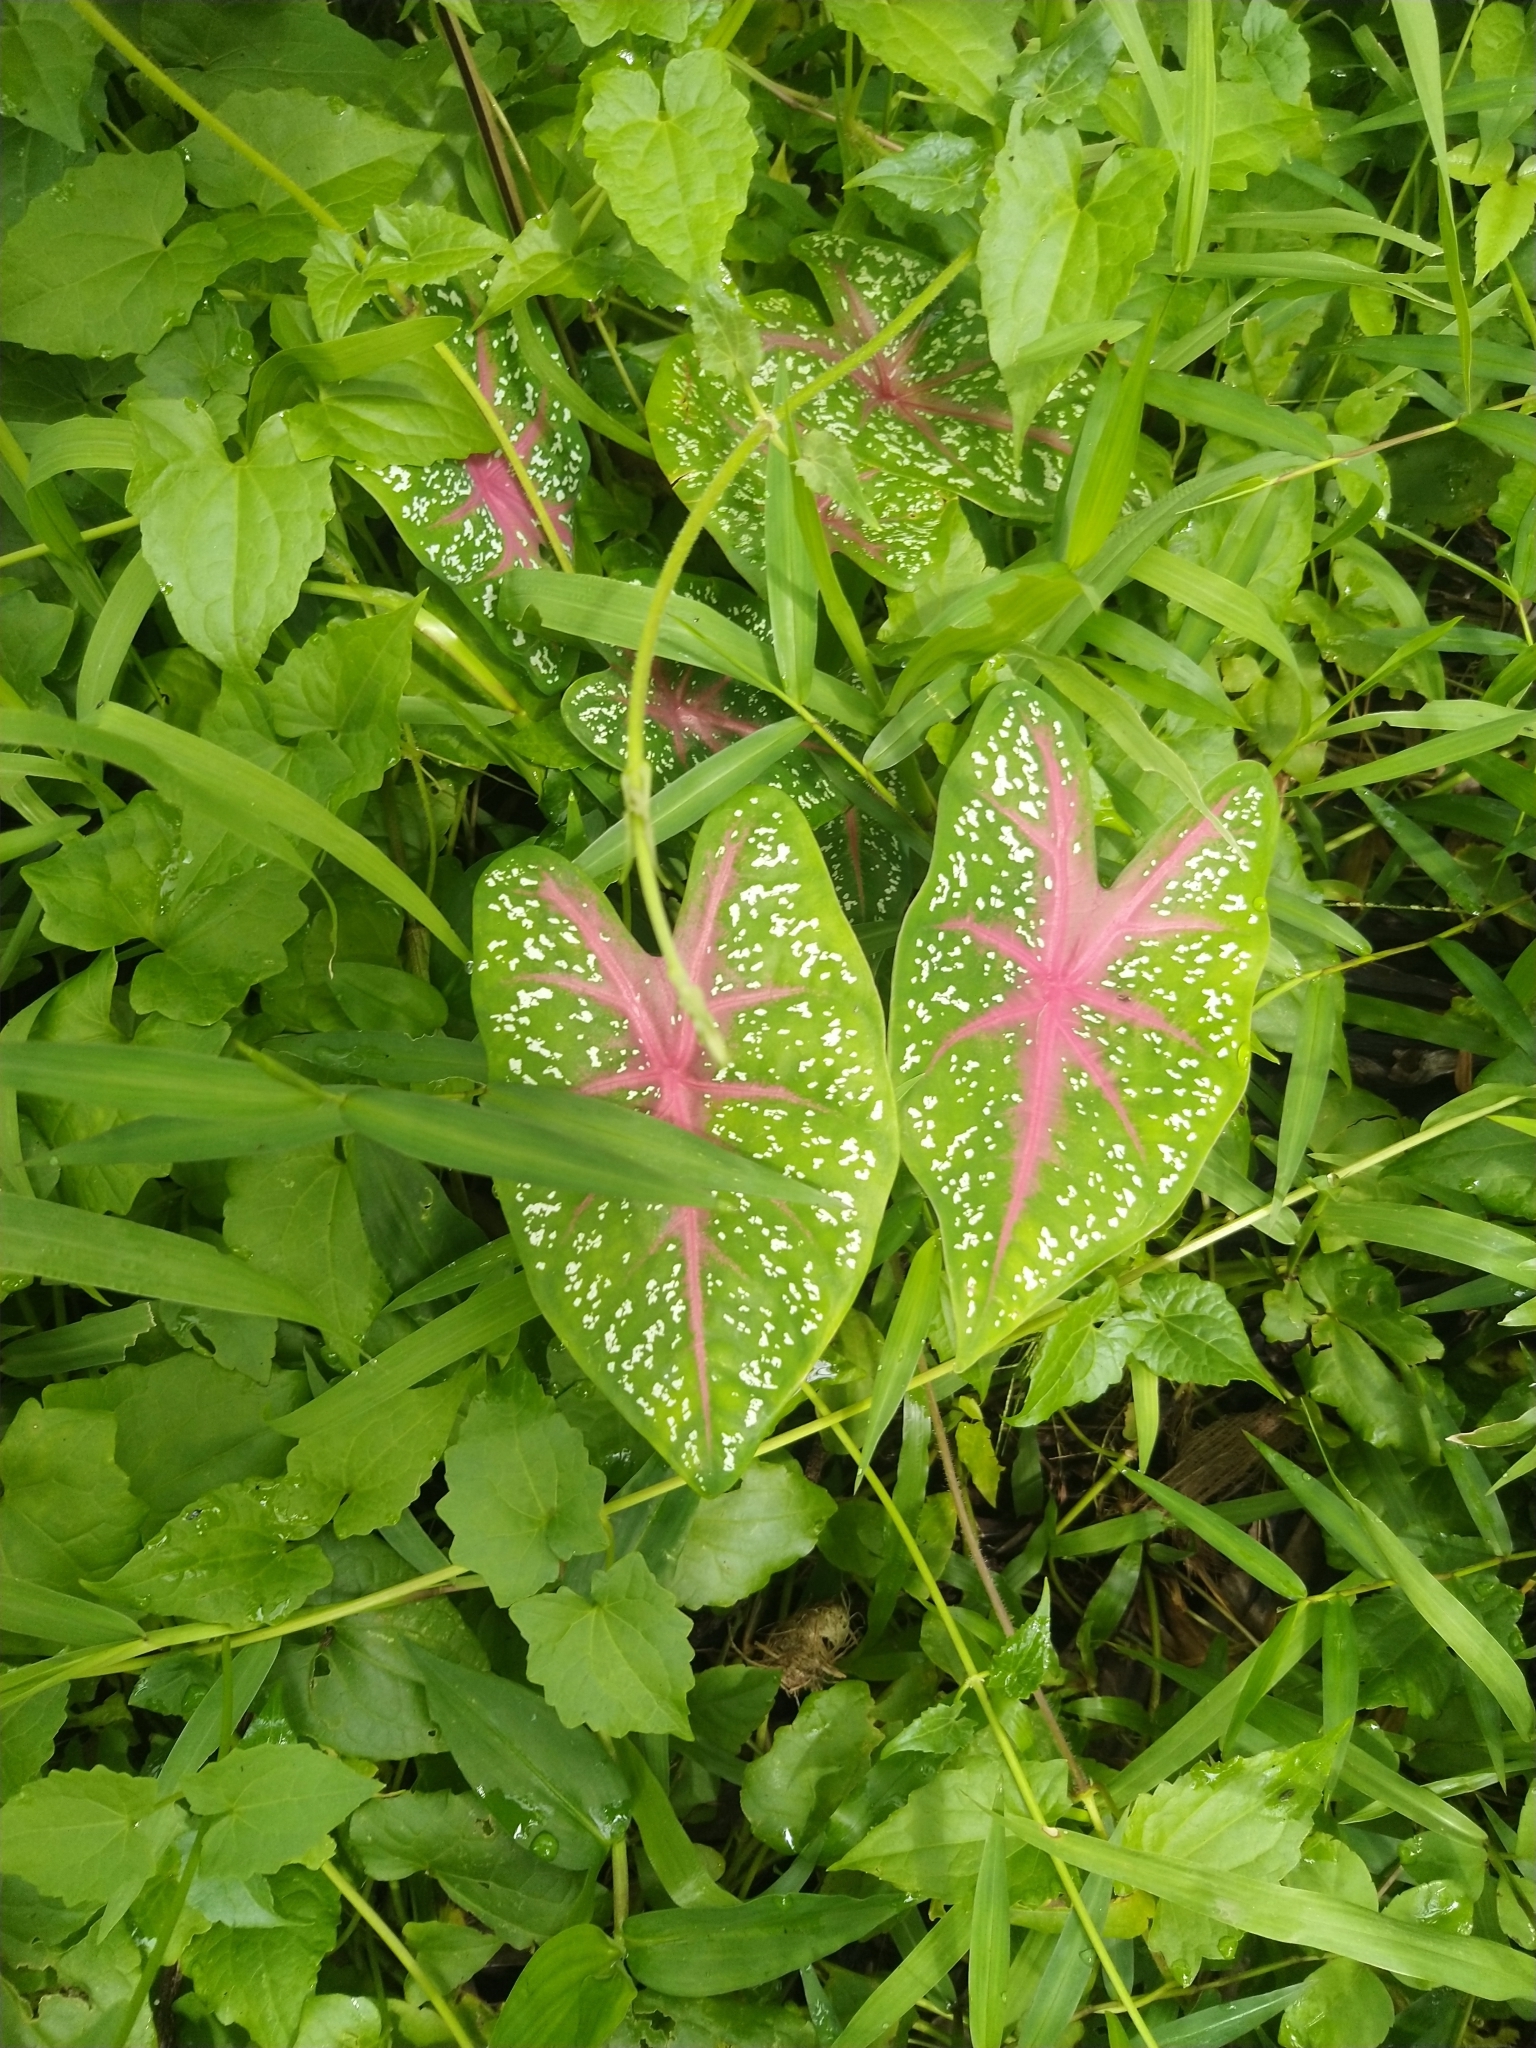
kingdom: Plantae
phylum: Tracheophyta
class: Liliopsida
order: Alismatales
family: Araceae
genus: Caladium
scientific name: Caladium bicolor
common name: Artist's pallet
